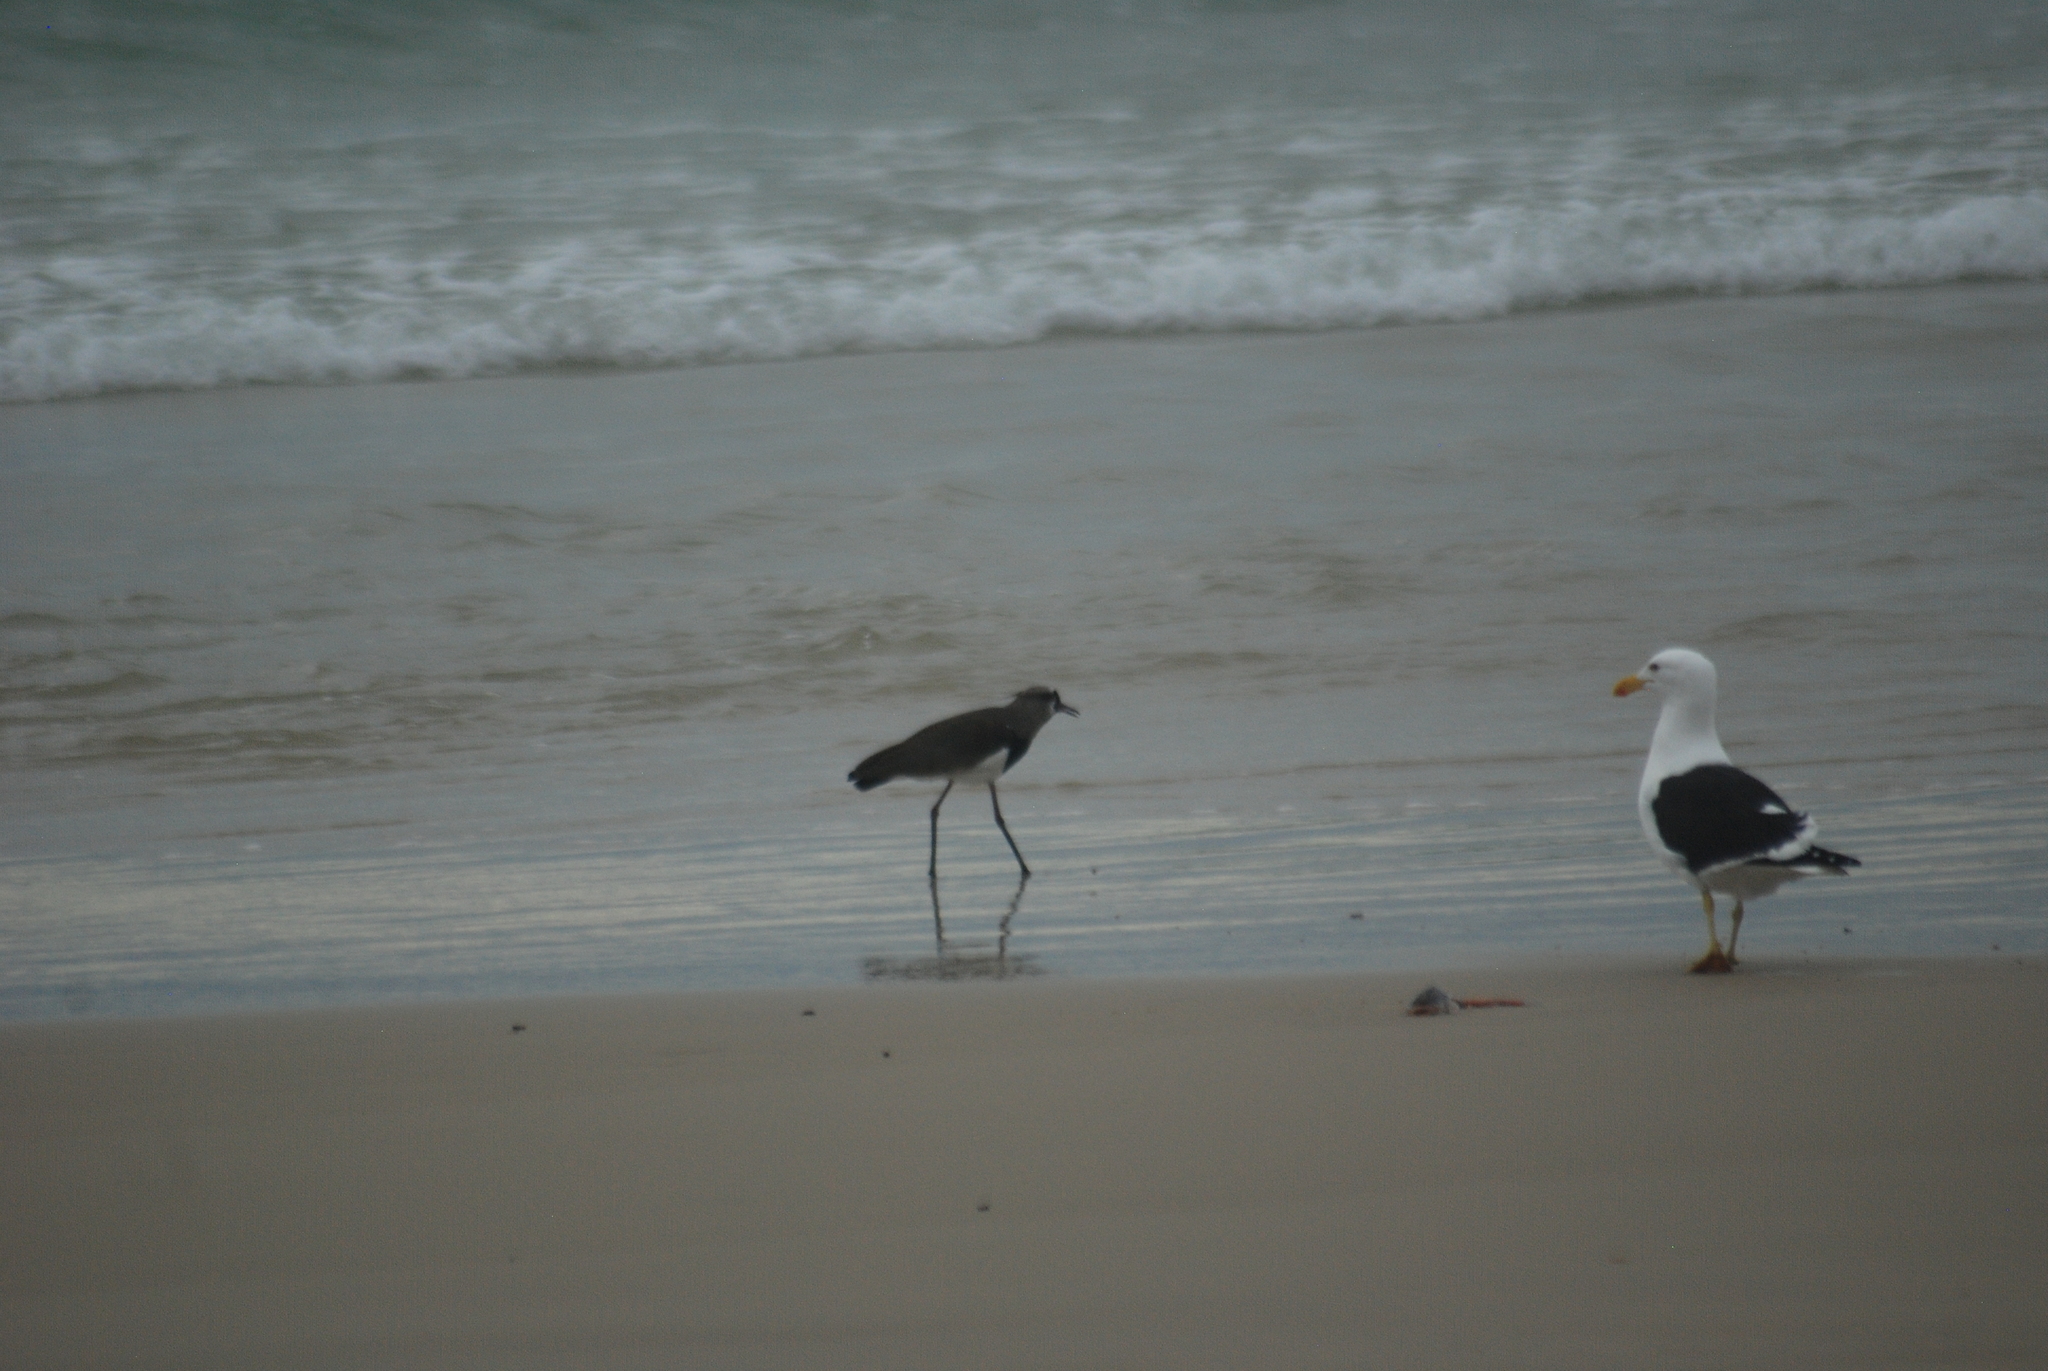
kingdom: Animalia
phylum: Chordata
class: Aves
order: Charadriiformes
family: Laridae
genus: Larus
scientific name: Larus dominicanus
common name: Kelp gull
